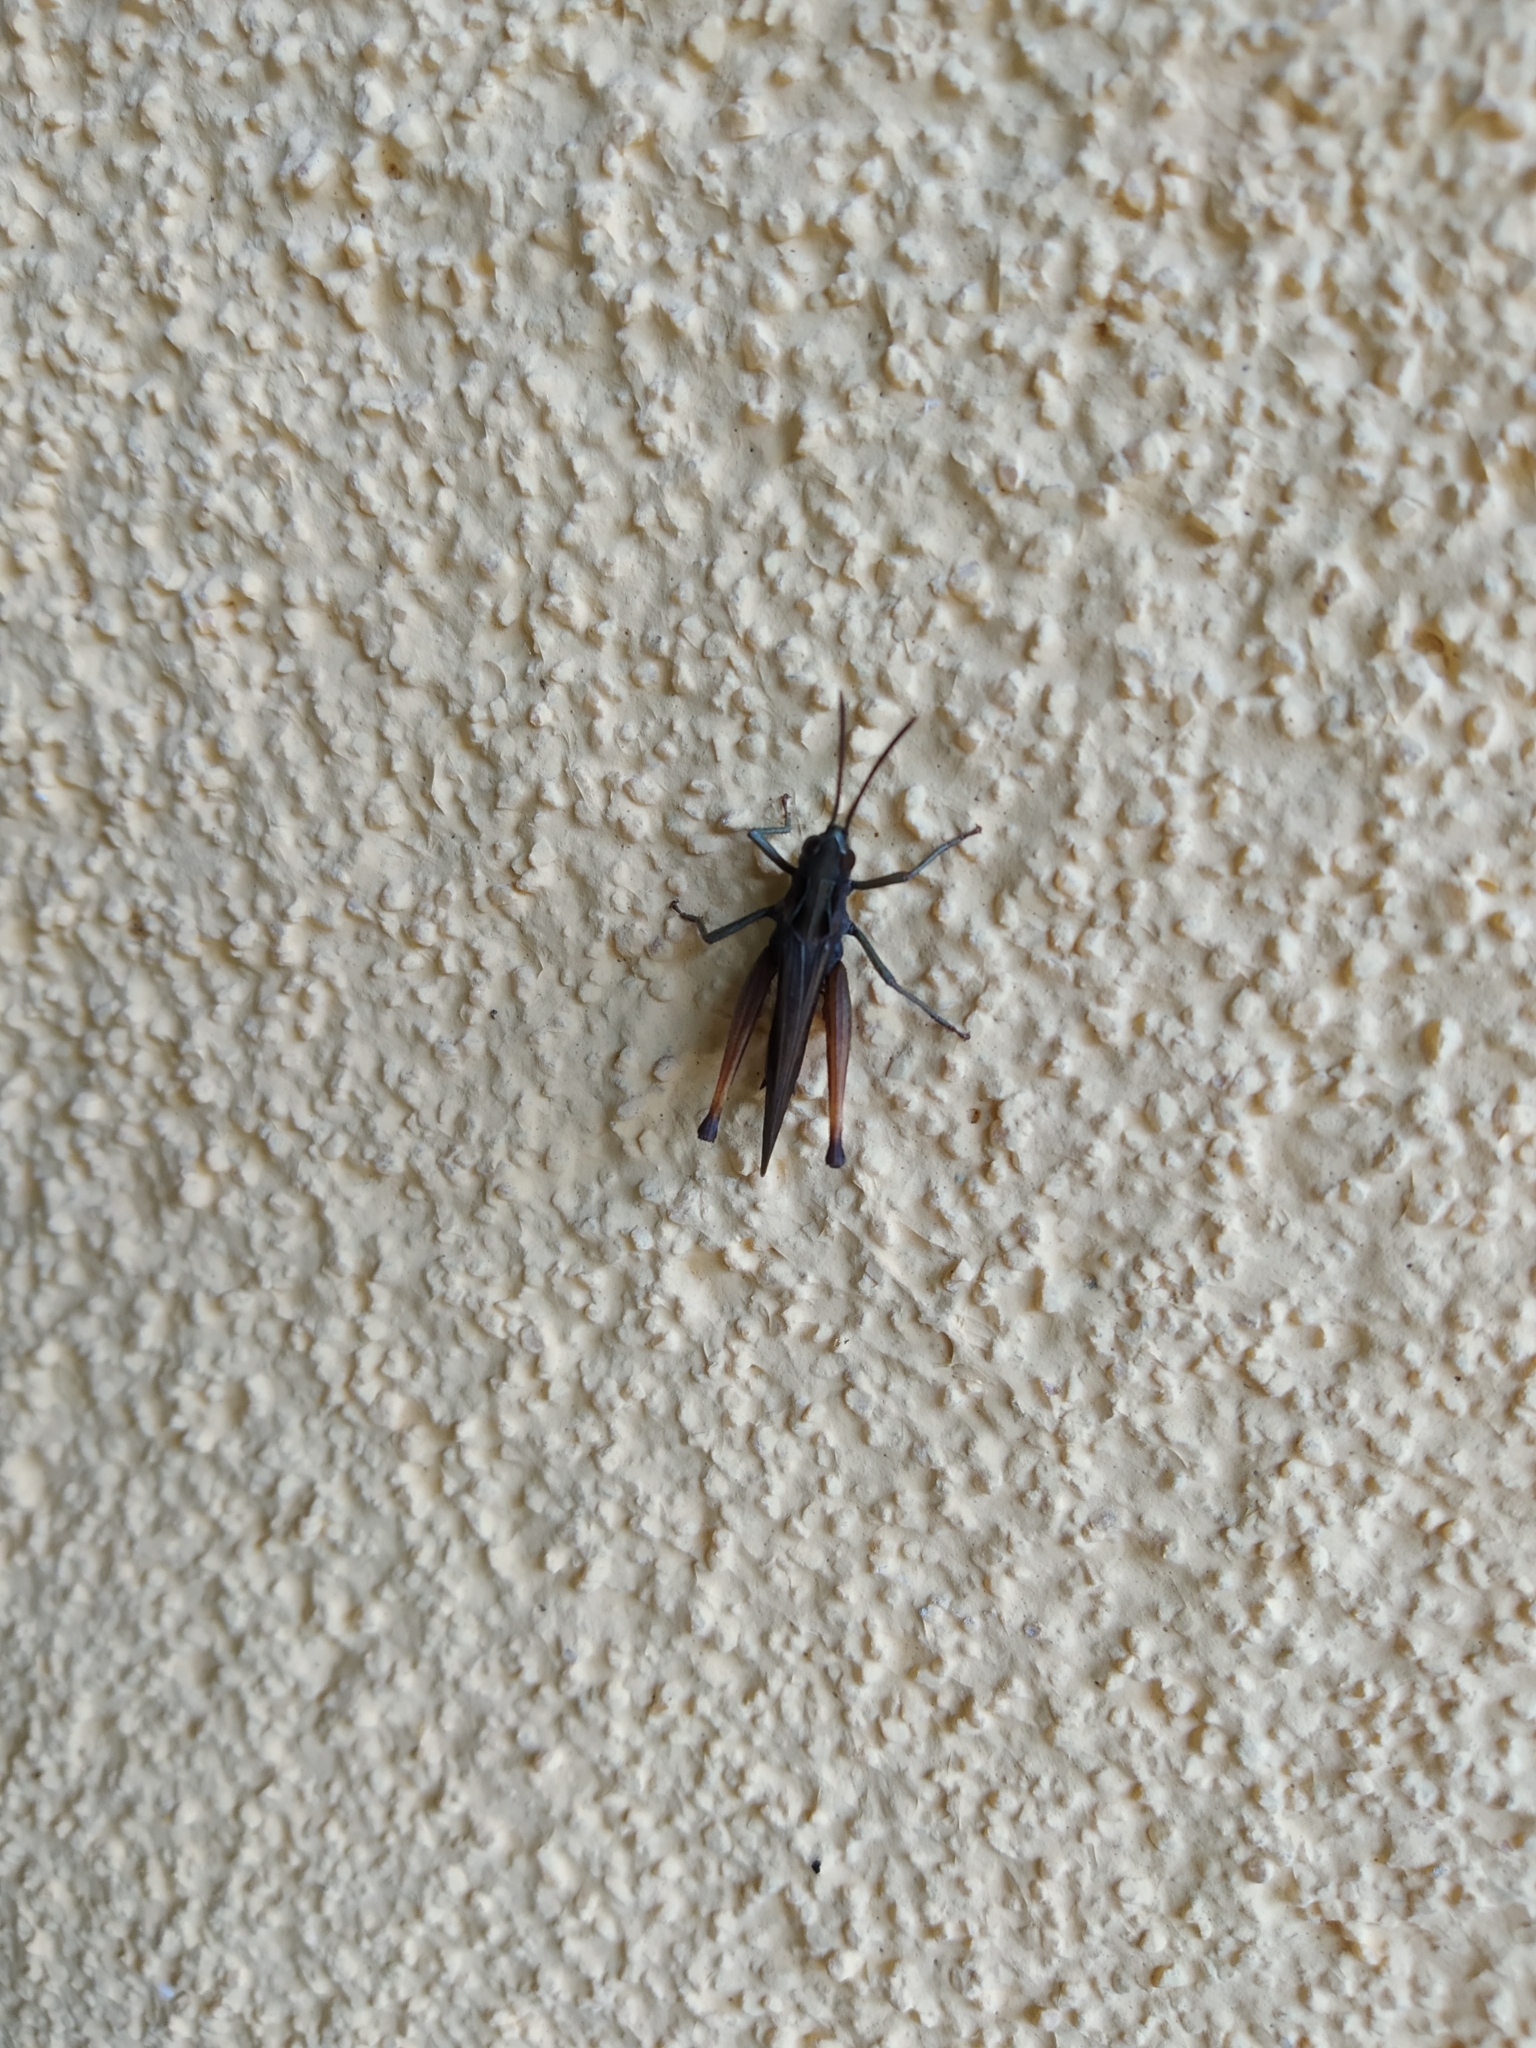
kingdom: Animalia
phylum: Arthropoda
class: Insecta
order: Orthoptera
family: Acrididae
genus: Omocestus
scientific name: Omocestus rufipes
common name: Woodland grasshopper
